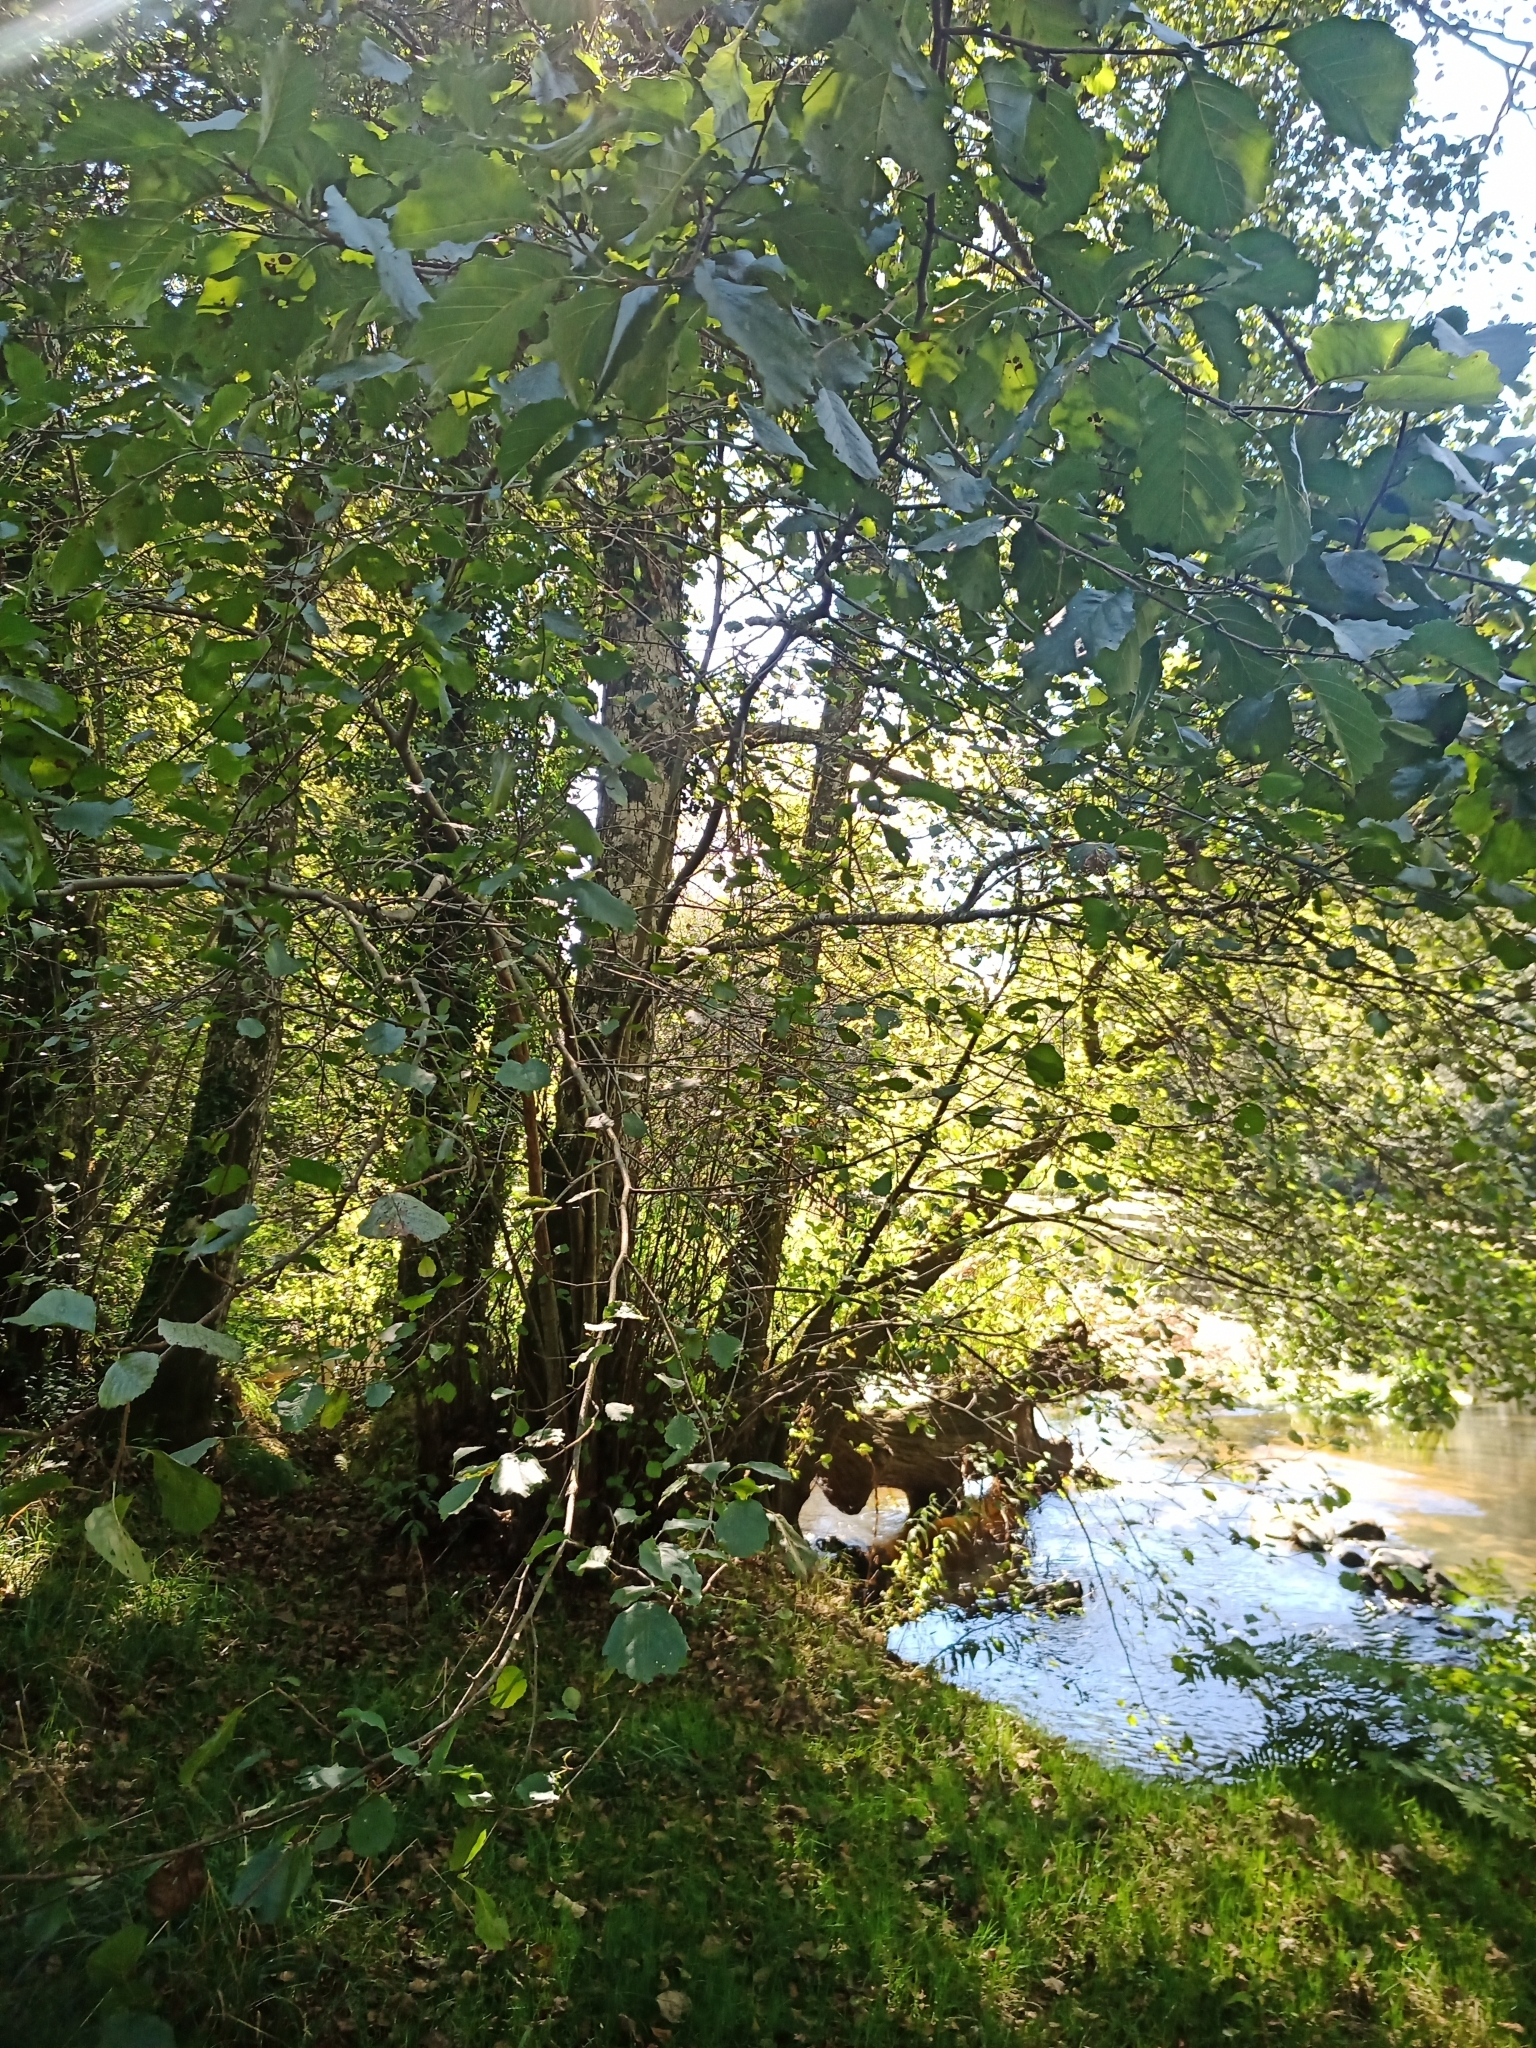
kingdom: Plantae
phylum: Tracheophyta
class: Magnoliopsida
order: Fagales
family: Betulaceae
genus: Alnus
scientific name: Alnus lusitanica
